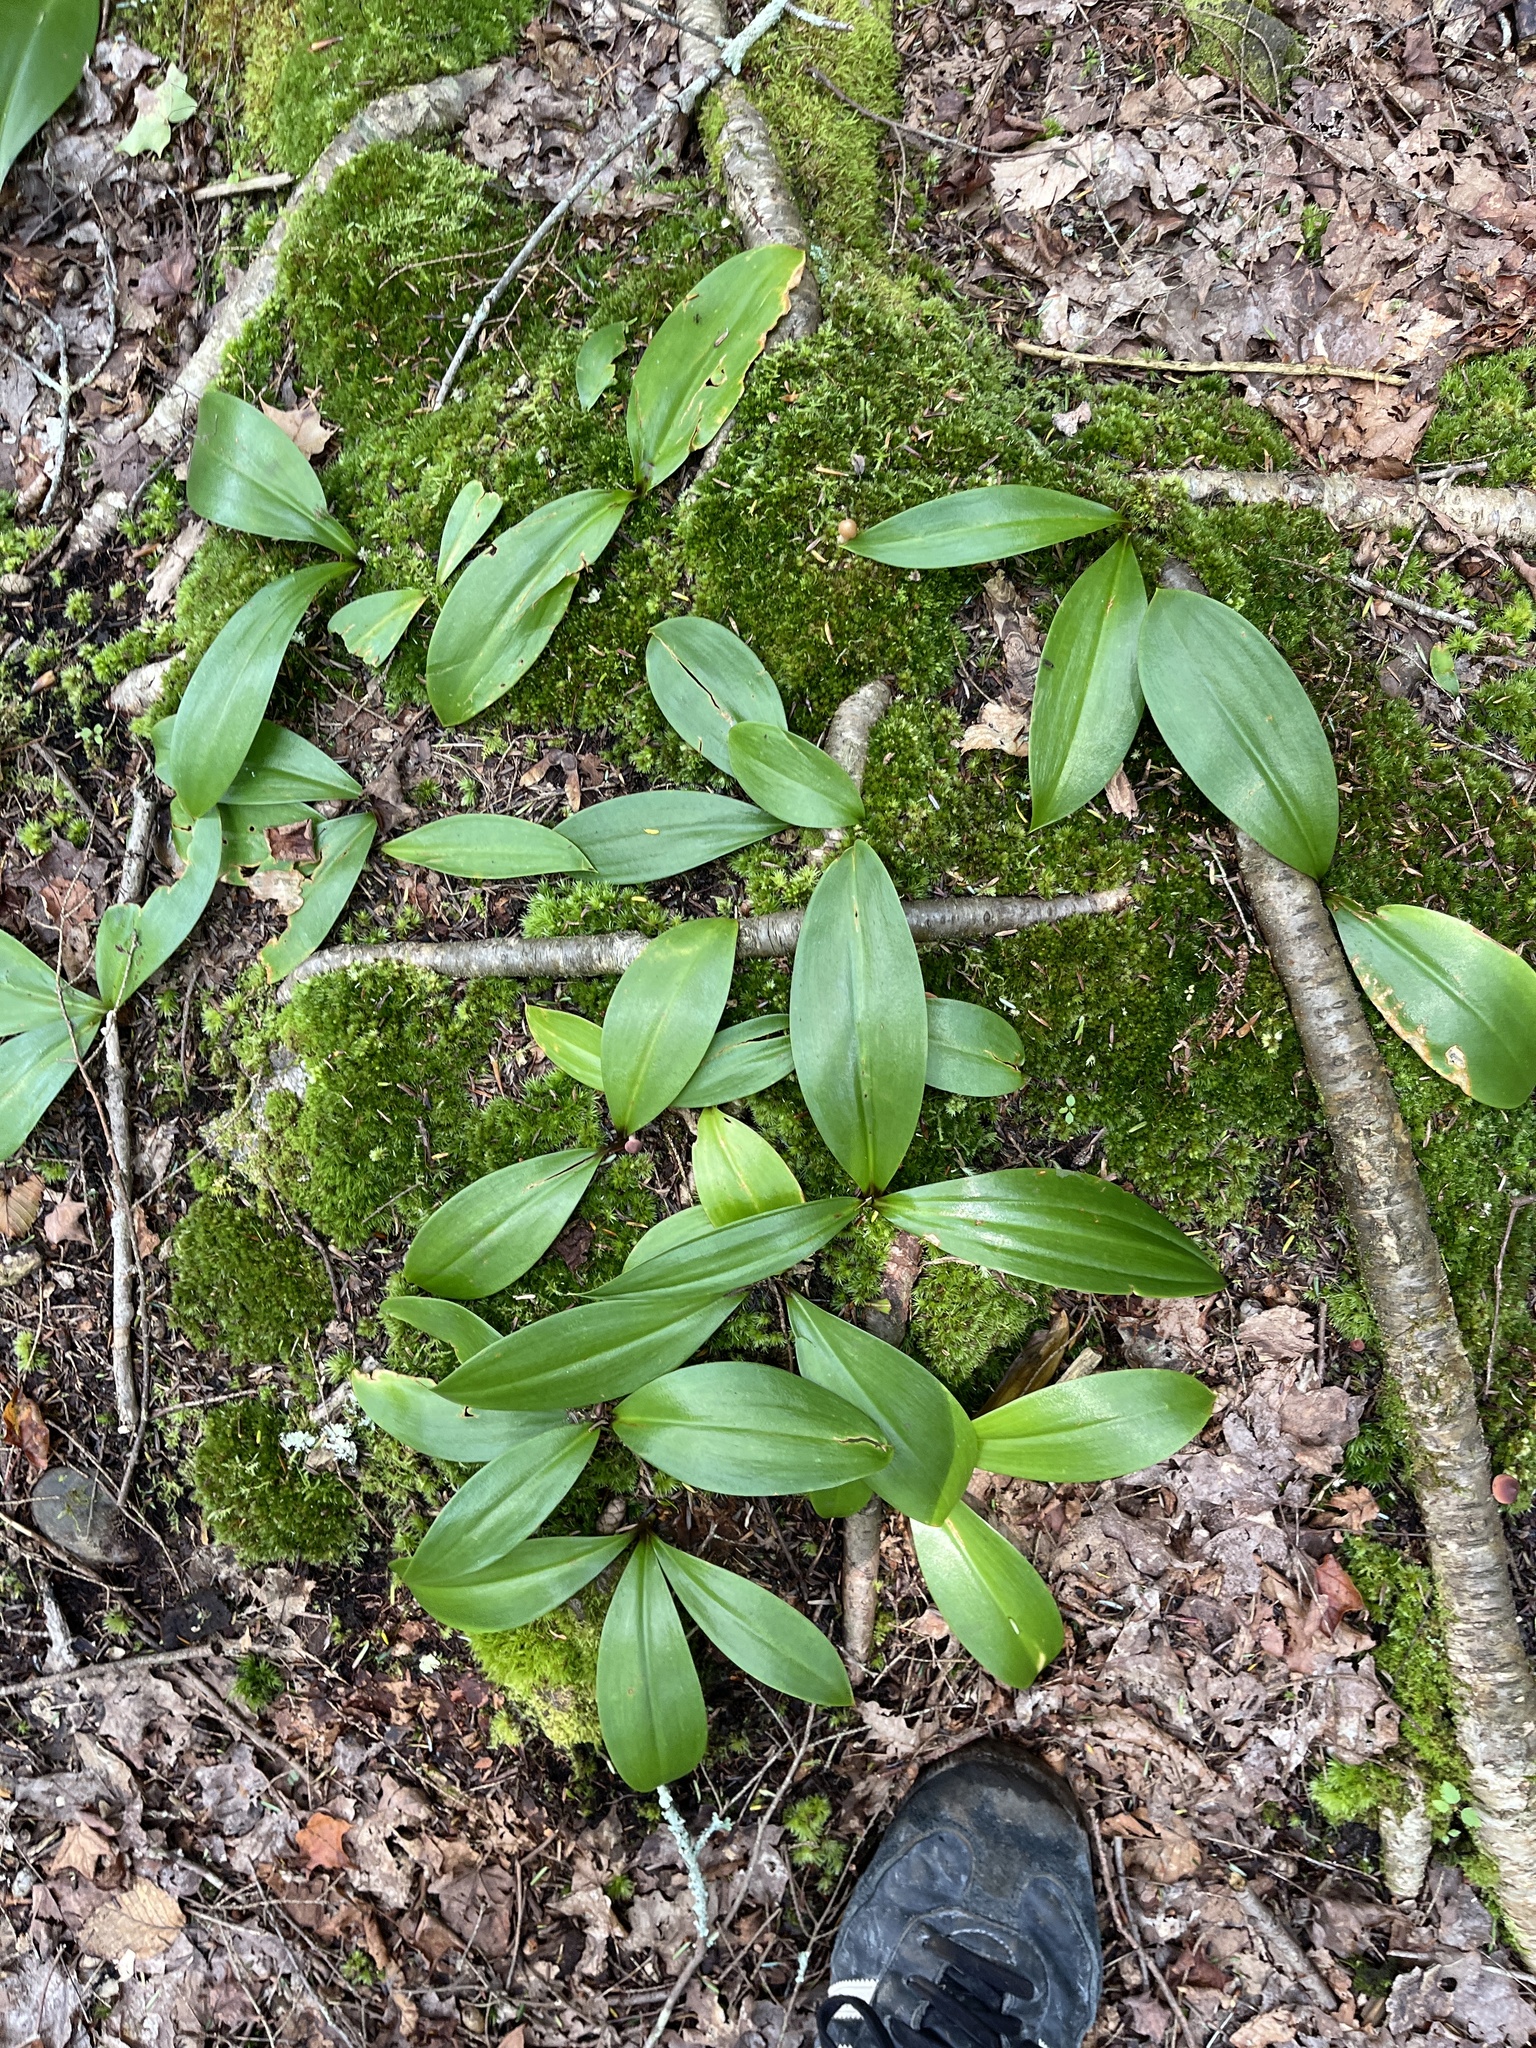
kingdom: Plantae
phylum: Tracheophyta
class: Liliopsida
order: Liliales
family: Liliaceae
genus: Clintonia
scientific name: Clintonia borealis
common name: Yellow clintonia
